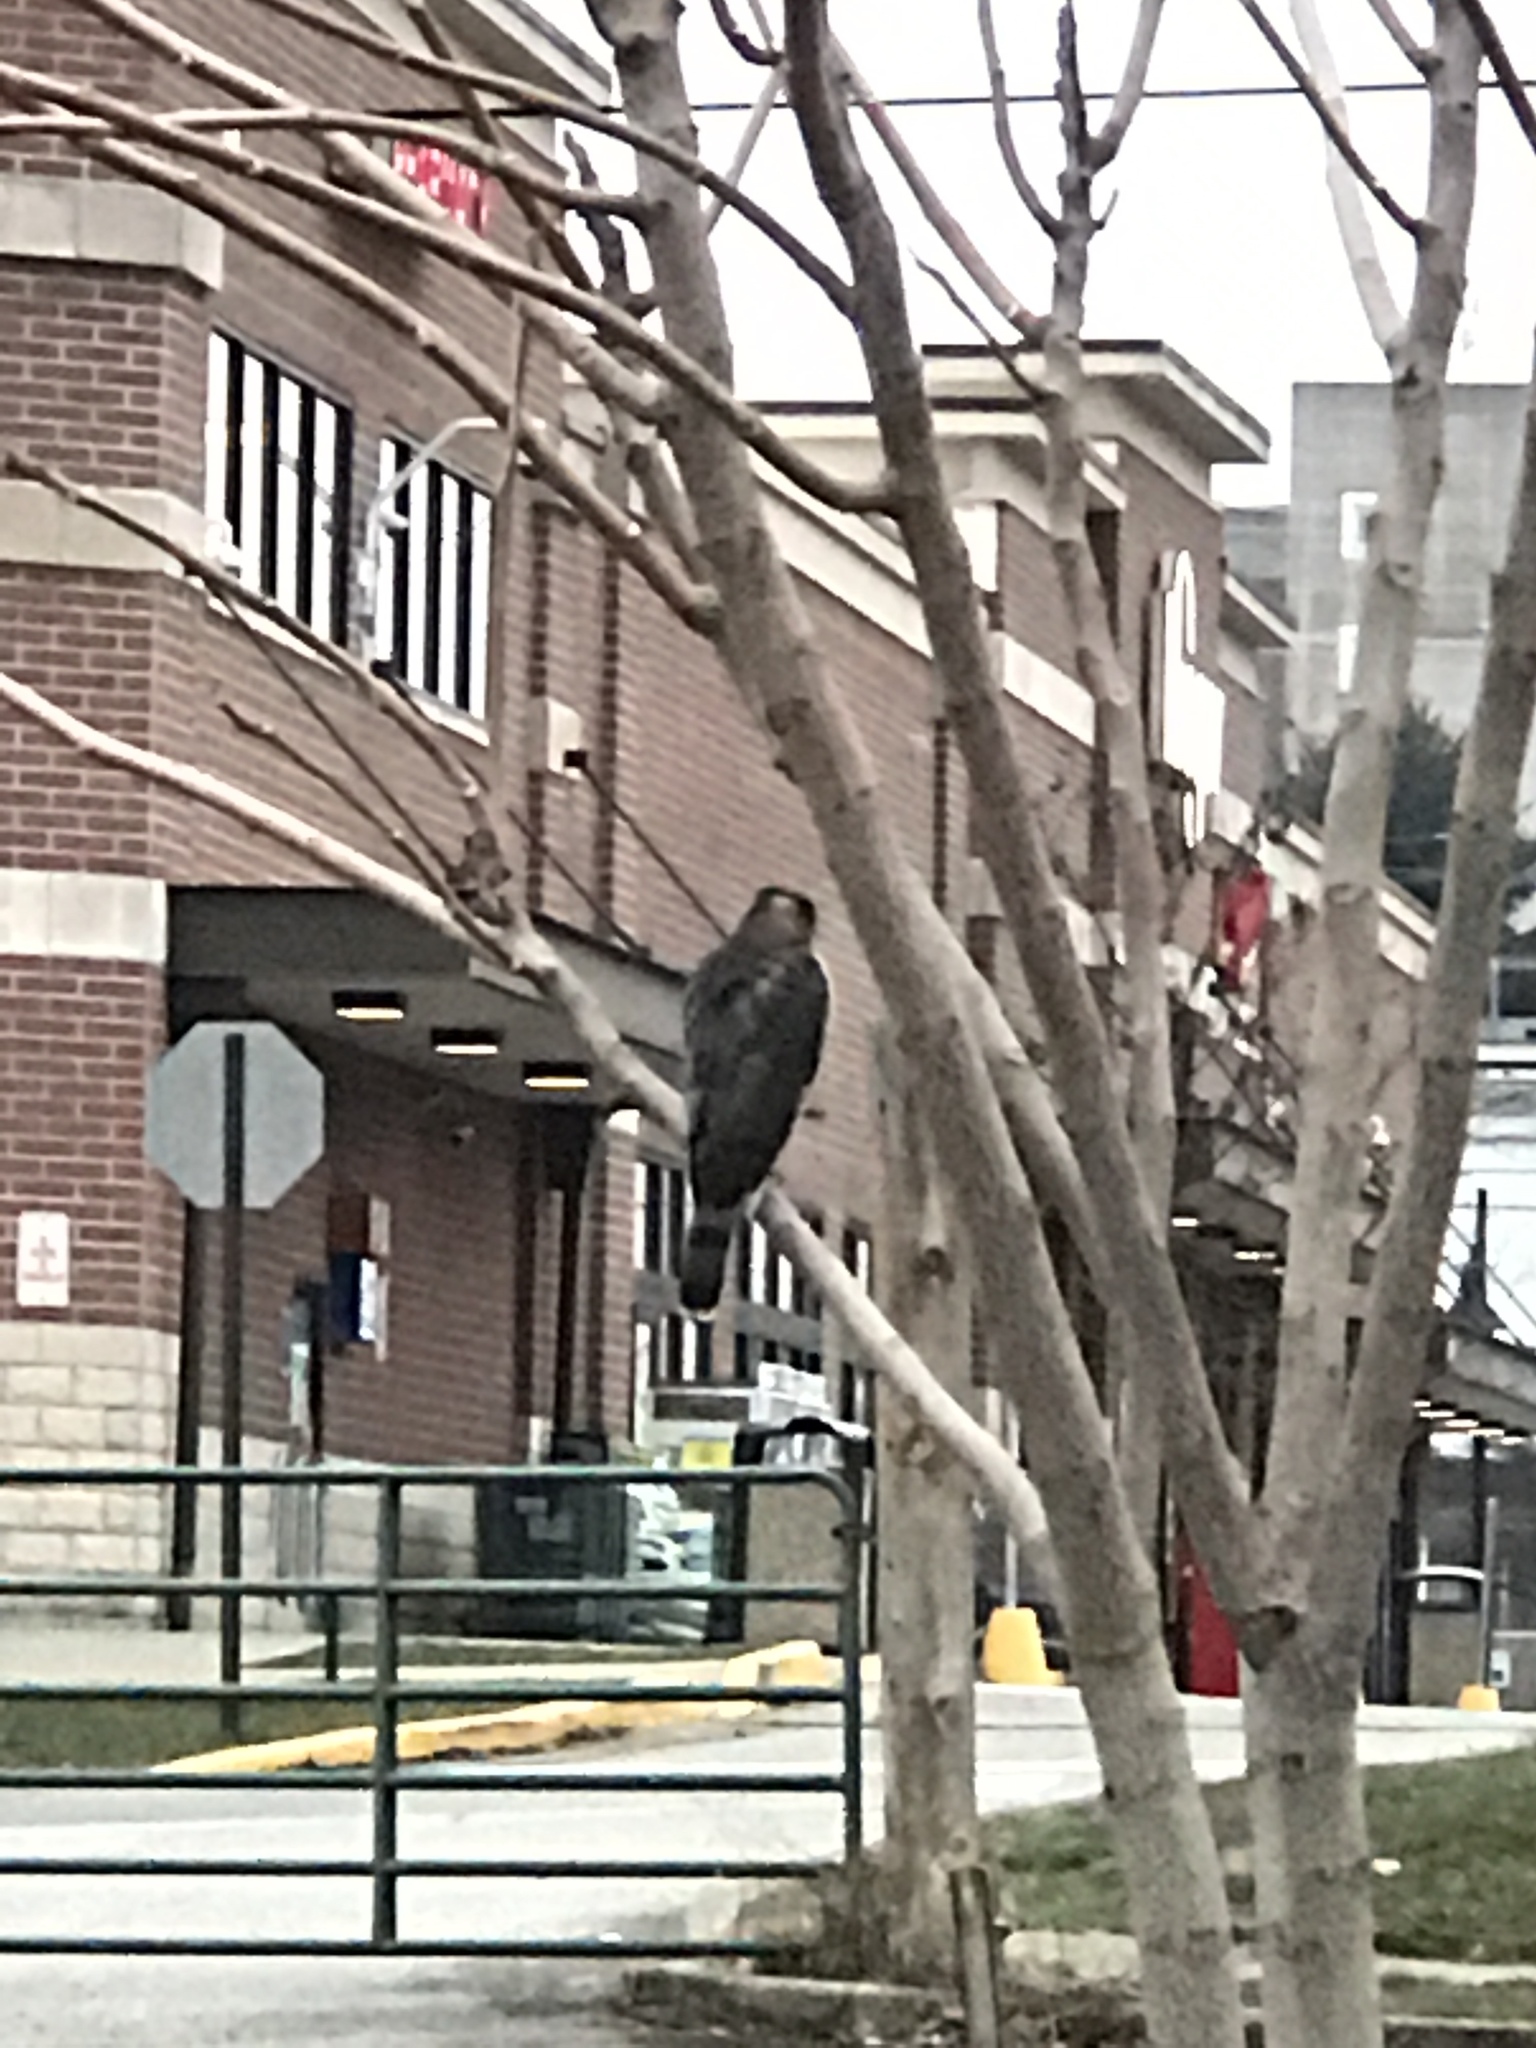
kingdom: Animalia
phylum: Chordata
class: Aves
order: Accipitriformes
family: Accipitridae
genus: Accipiter
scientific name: Accipiter cooperii
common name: Cooper's hawk
